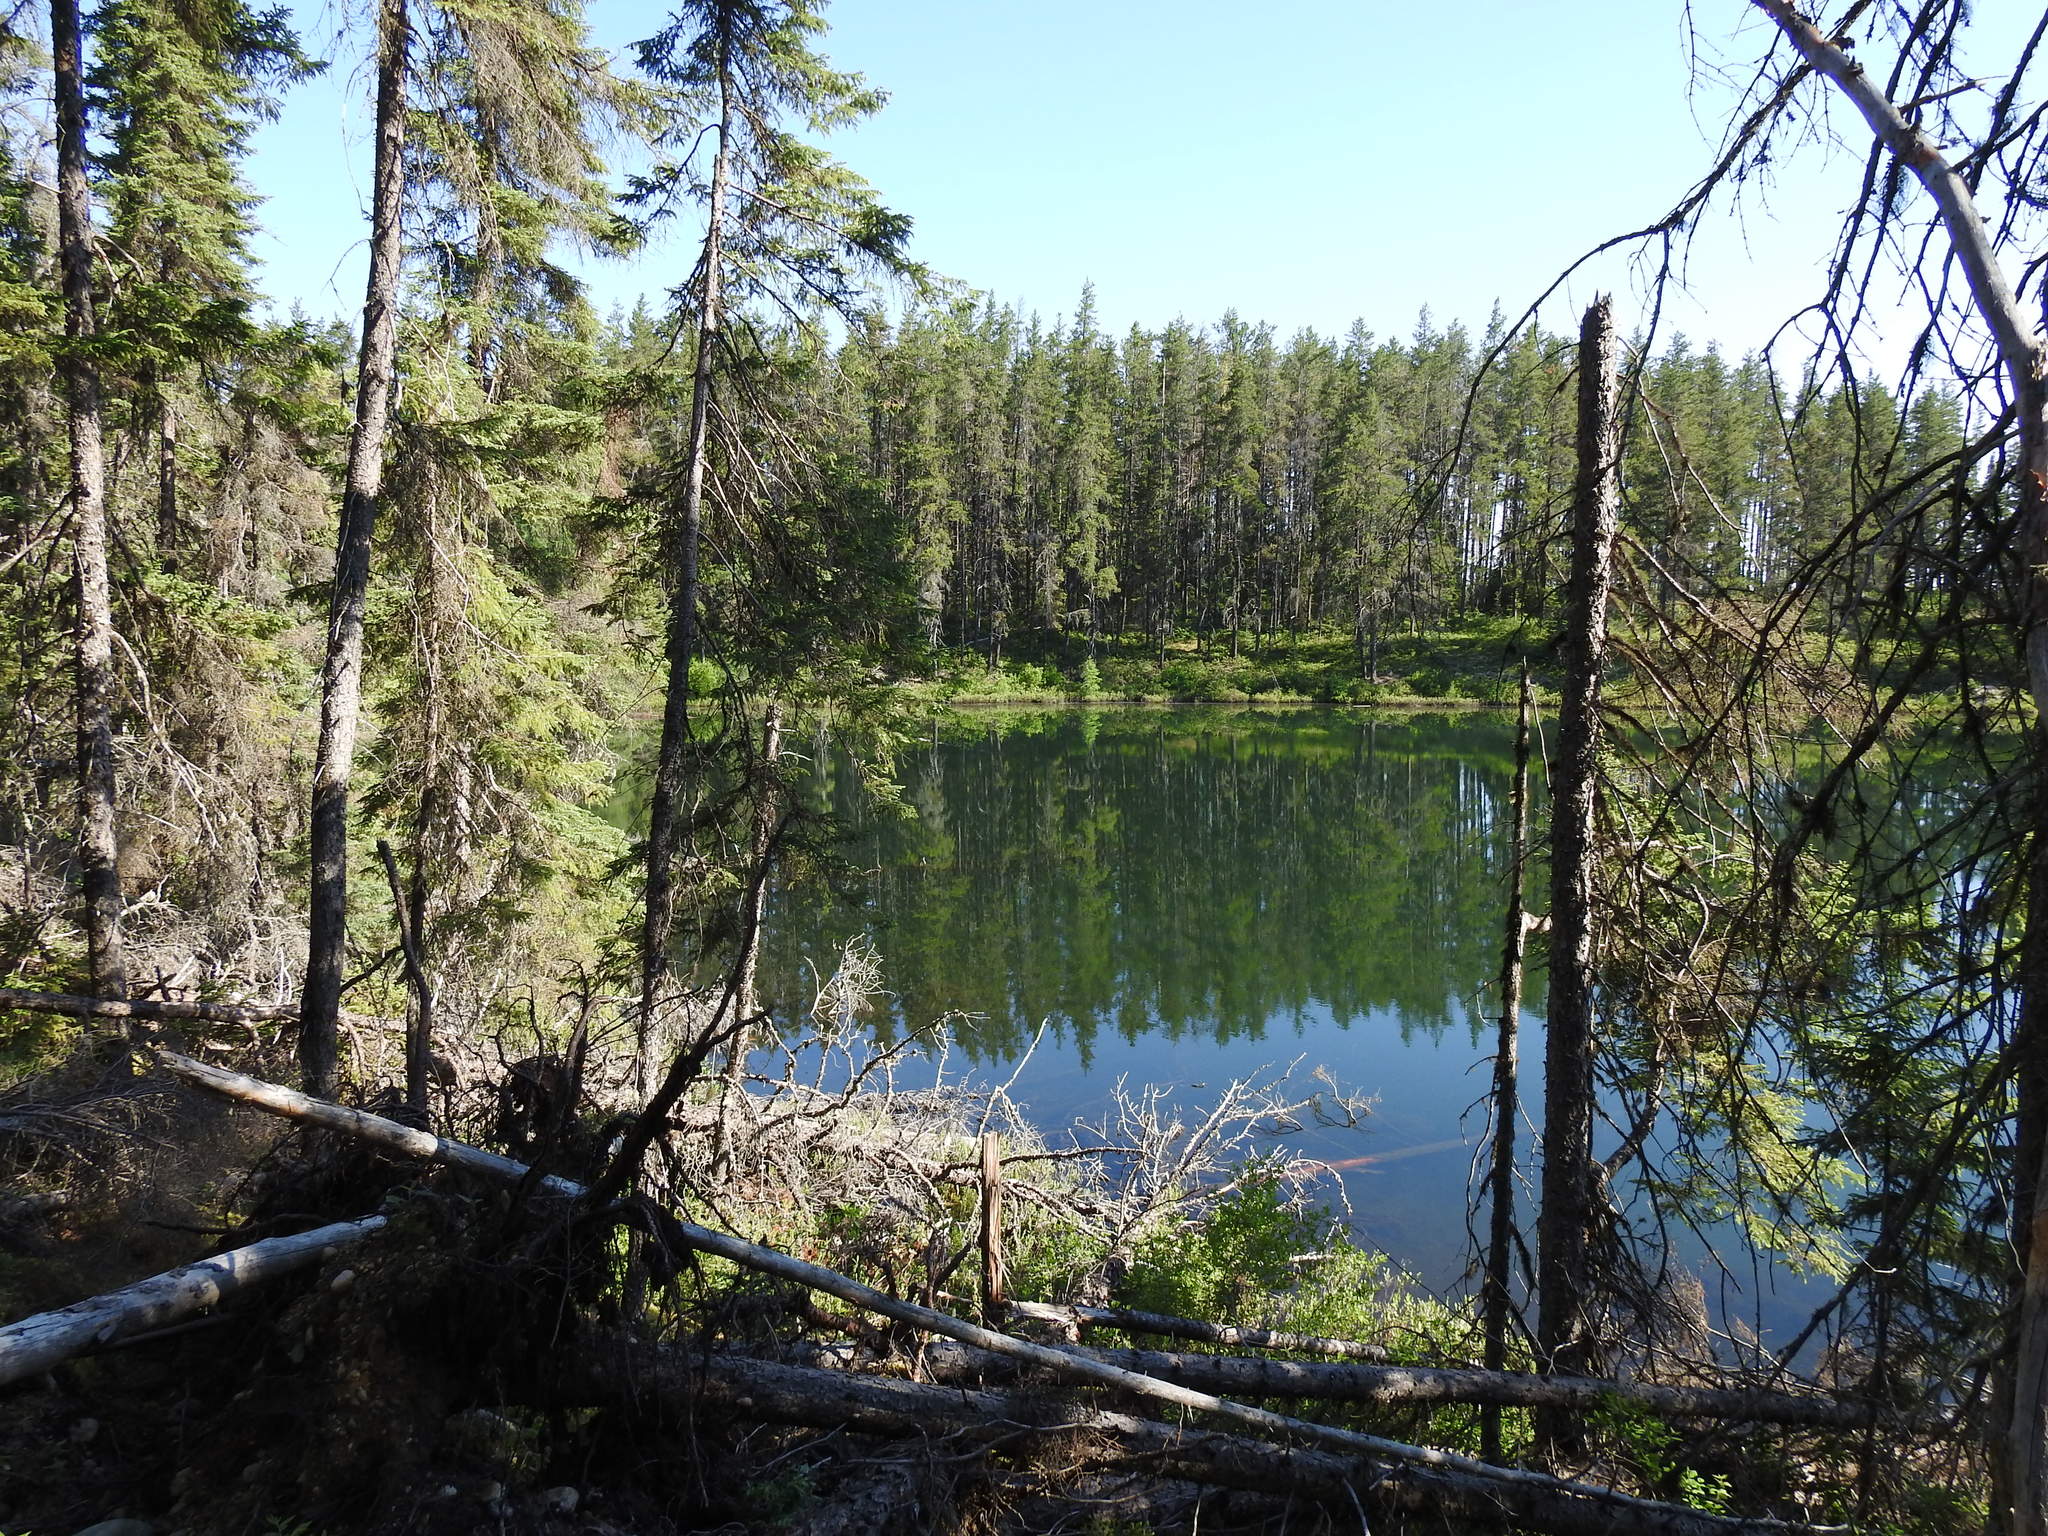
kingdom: Plantae
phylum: Tracheophyta
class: Pinopsida
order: Pinales
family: Pinaceae
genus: Picea
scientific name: Picea mariana
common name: Black spruce
